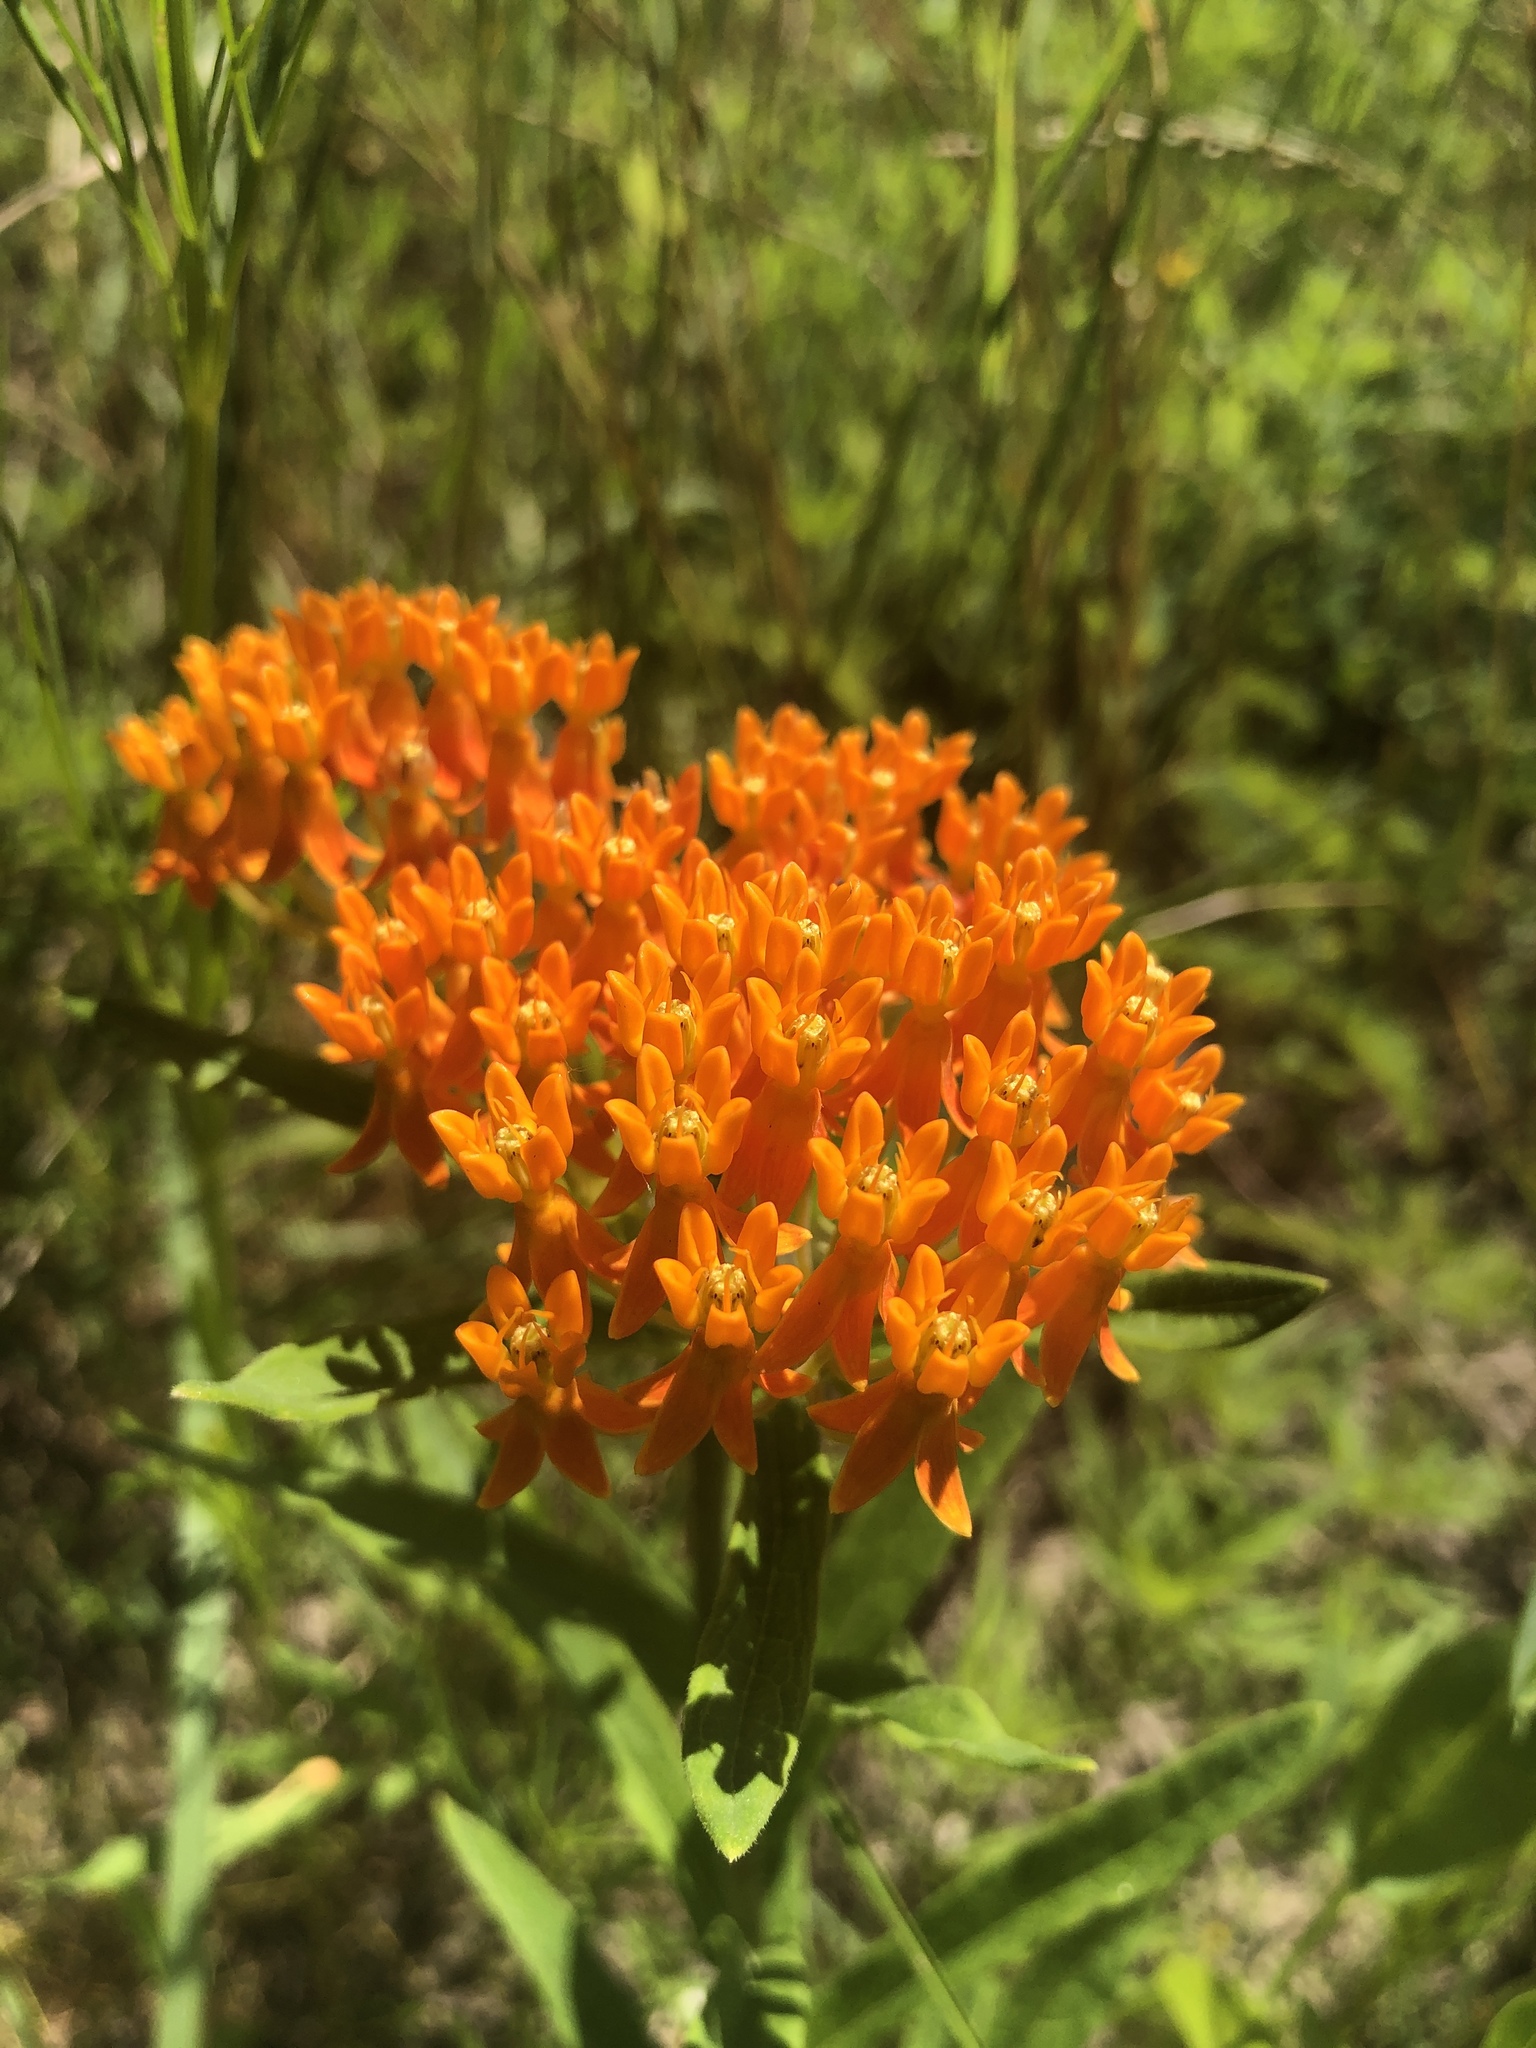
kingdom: Plantae
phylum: Tracheophyta
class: Magnoliopsida
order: Gentianales
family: Apocynaceae
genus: Asclepias
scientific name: Asclepias tuberosa
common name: Butterfly milkweed
